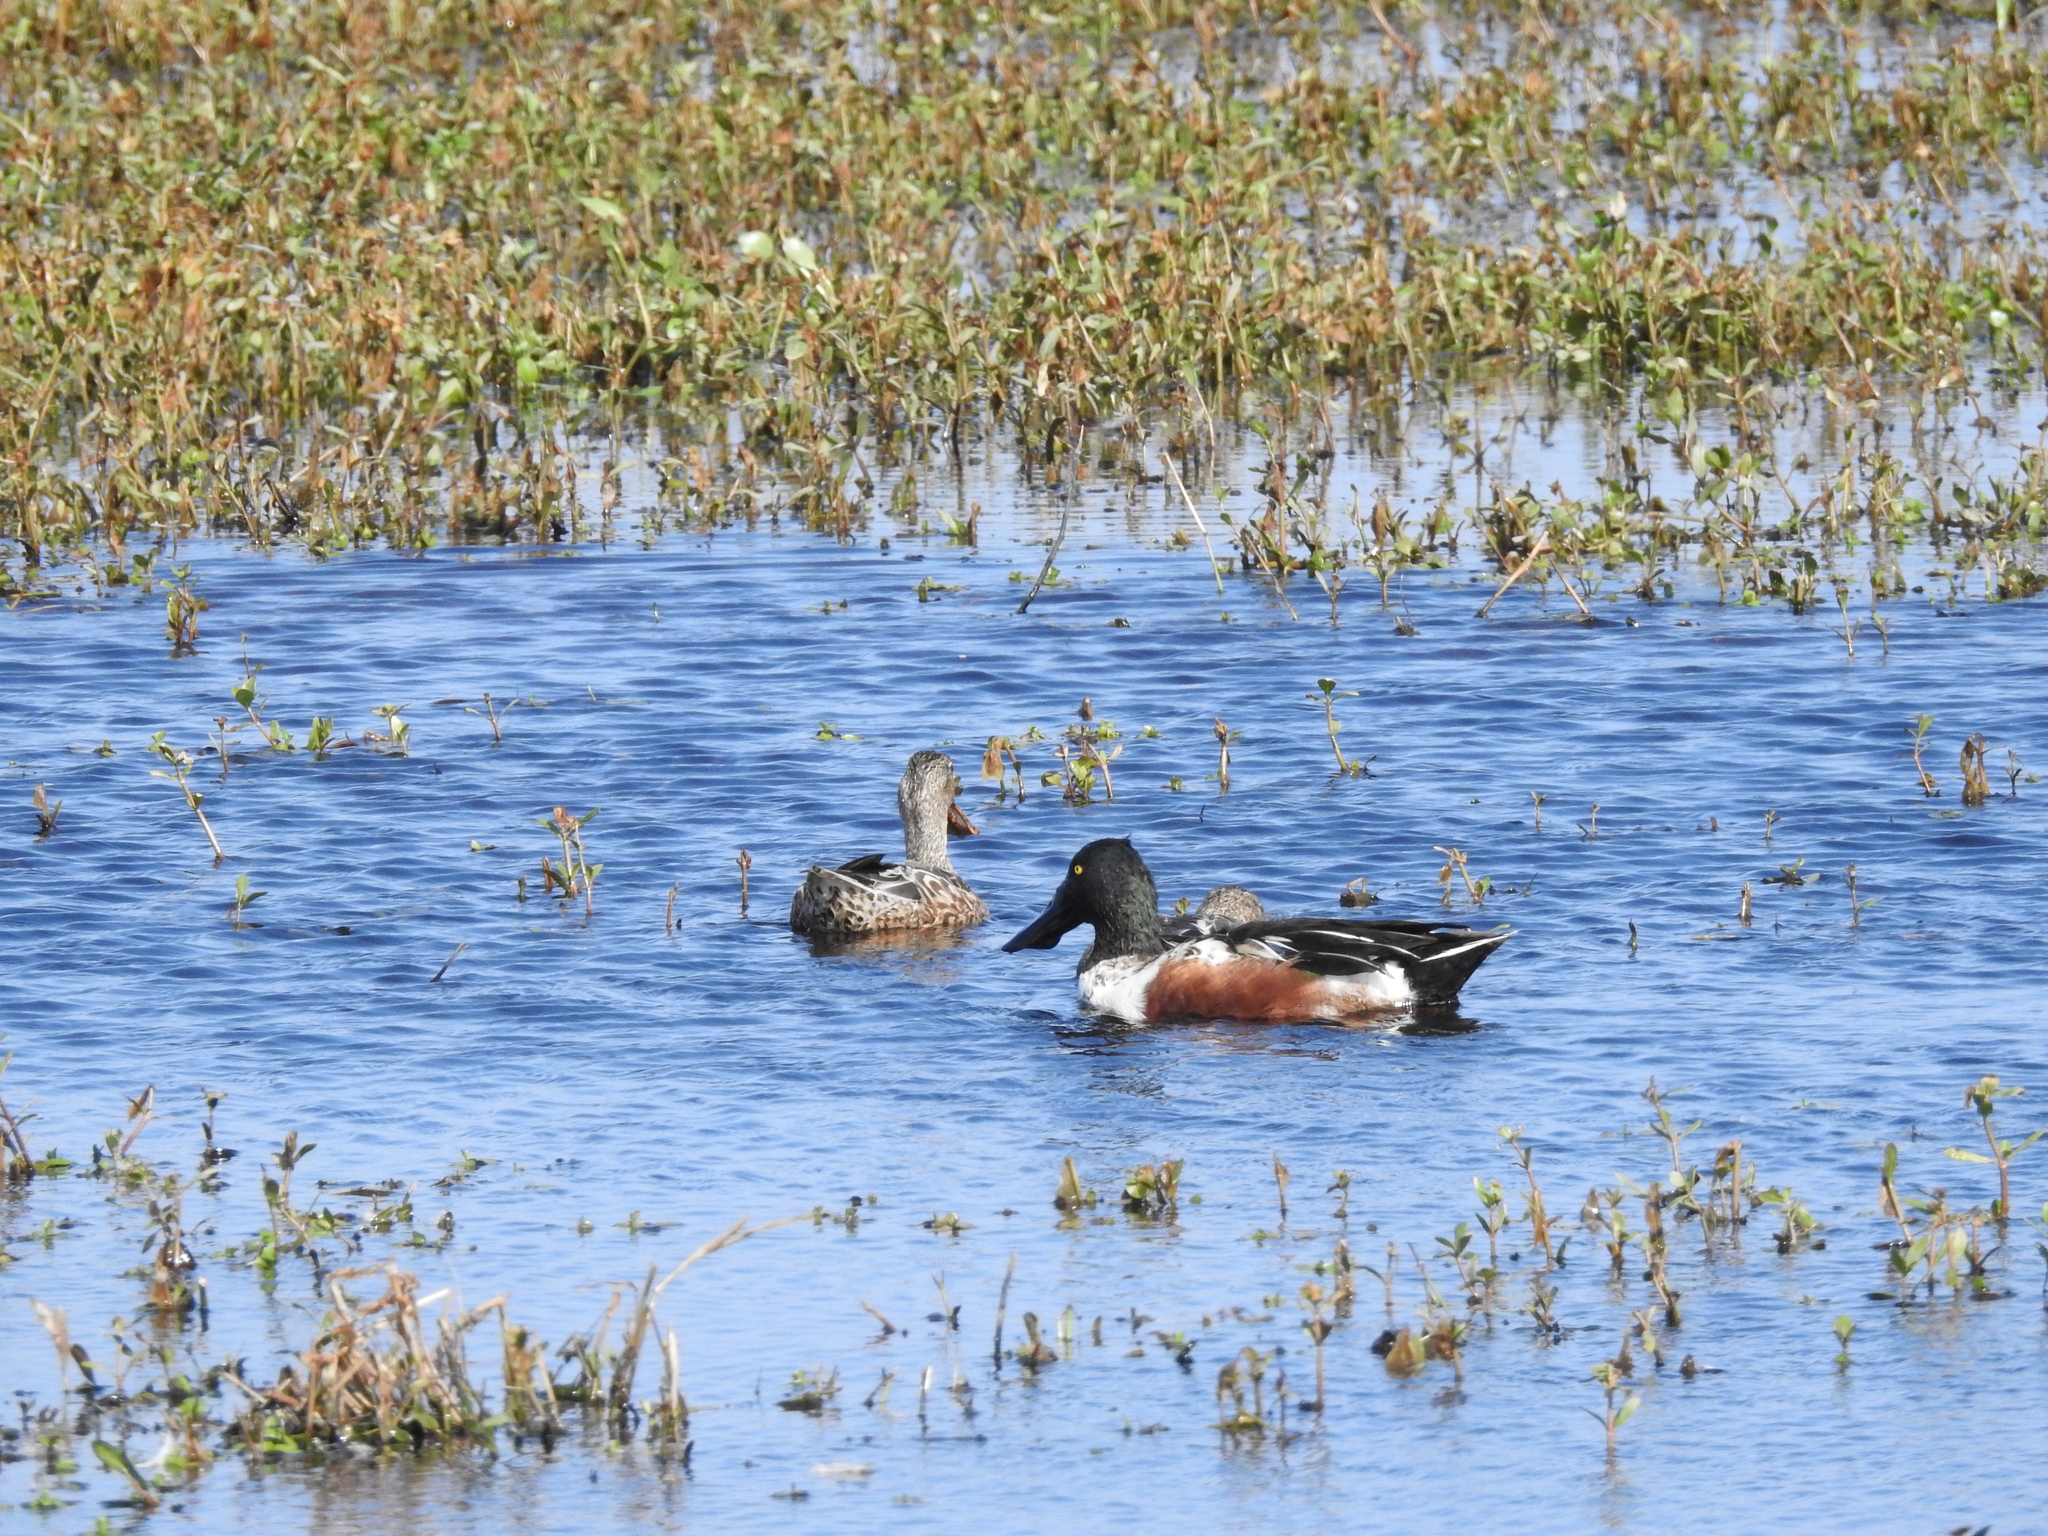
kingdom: Animalia
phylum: Chordata
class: Aves
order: Anseriformes
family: Anatidae
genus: Spatula
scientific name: Spatula clypeata
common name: Northern shoveler
